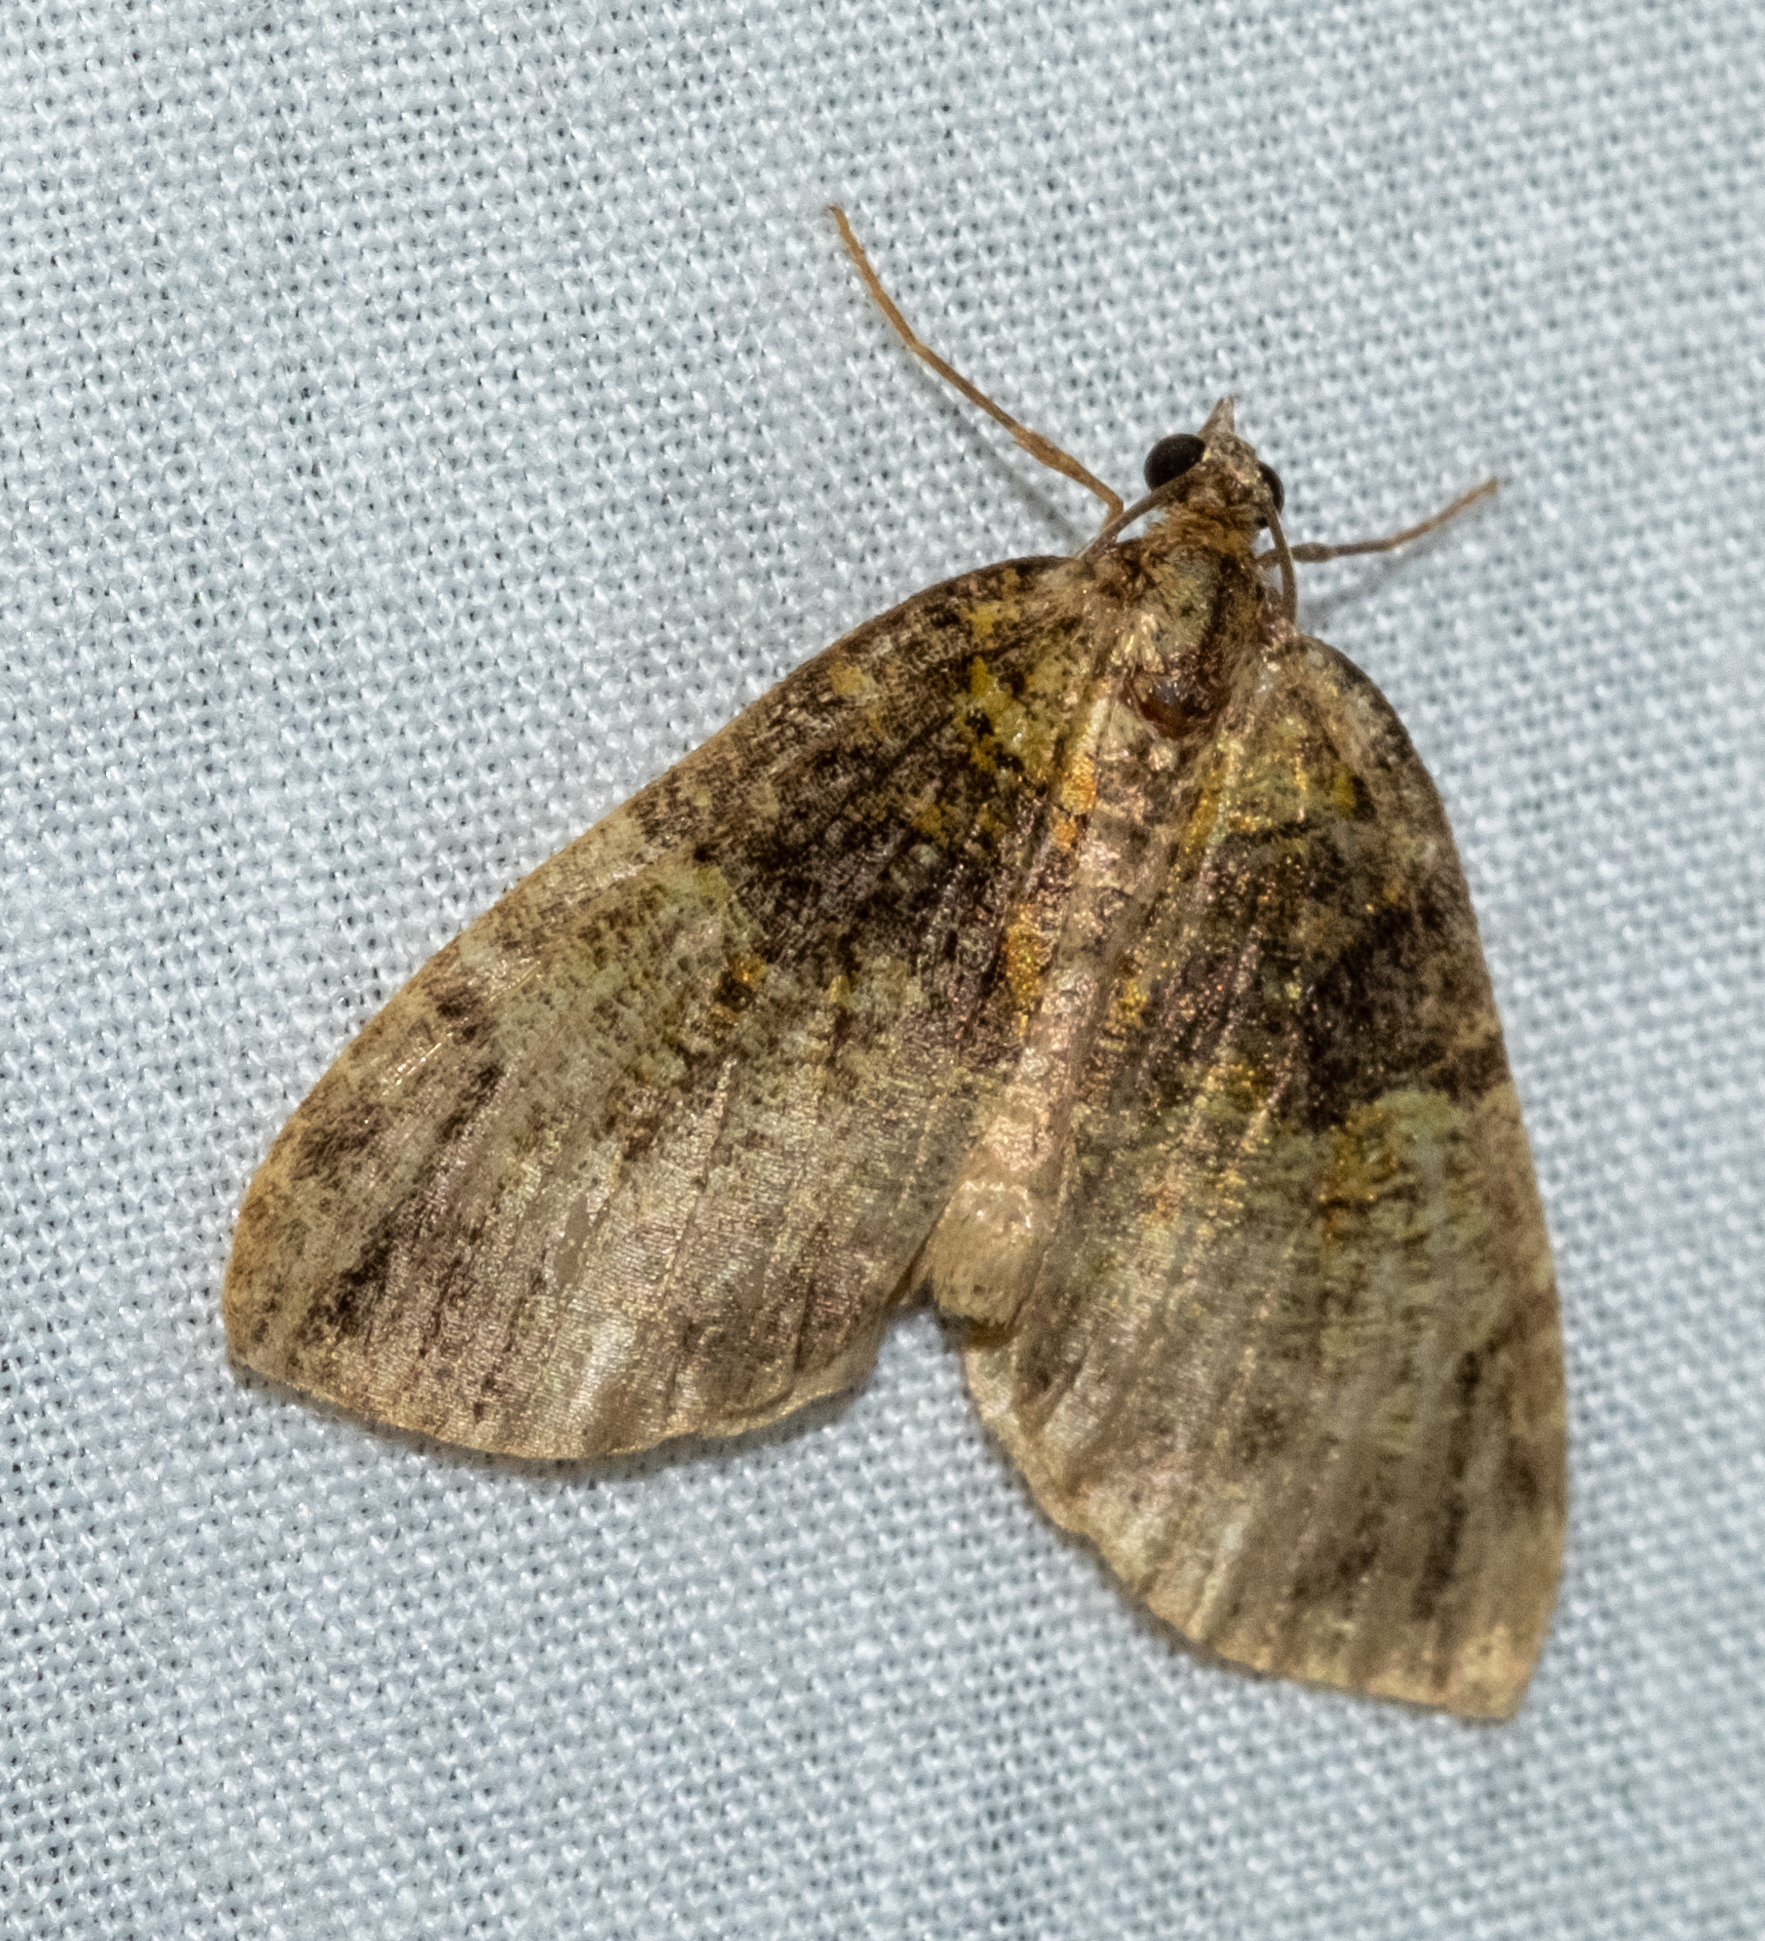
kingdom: Animalia
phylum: Arthropoda
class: Insecta
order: Lepidoptera
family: Geometridae
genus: Hydriomena
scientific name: Hydriomena furcata
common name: July highflyer
